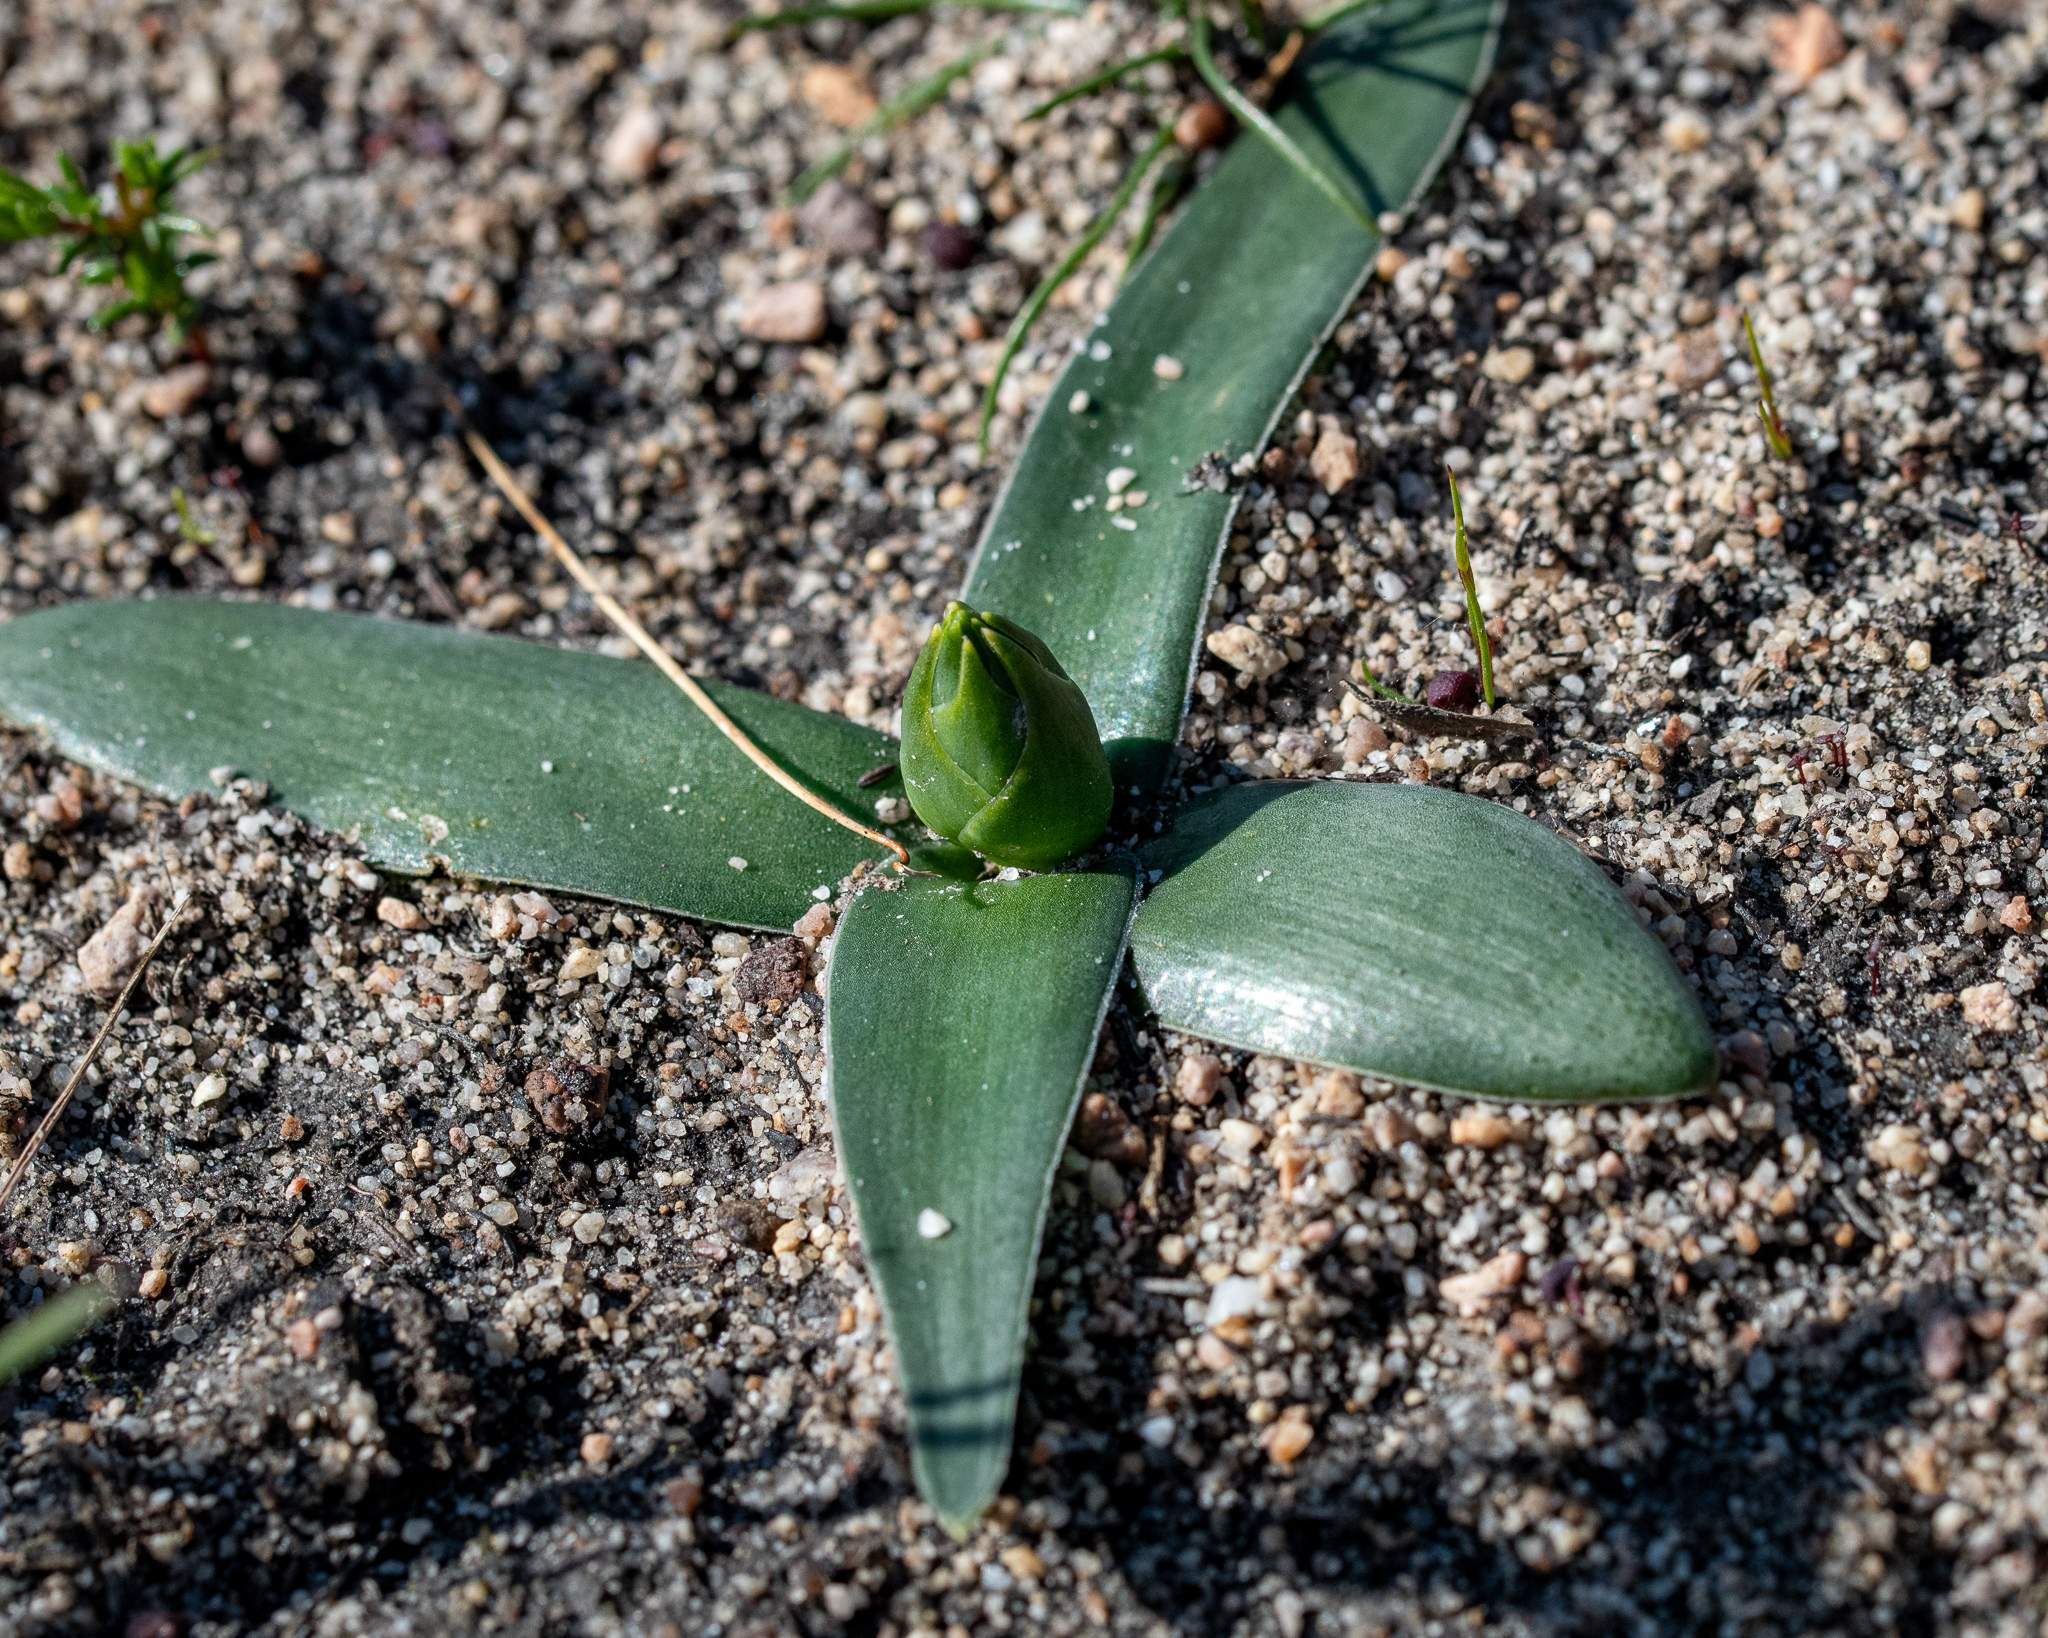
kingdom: Plantae
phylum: Tracheophyta
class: Liliopsida
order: Asparagales
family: Asparagaceae
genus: Ornithogalum
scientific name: Ornithogalum thyrsoides
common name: Chincherinchee
